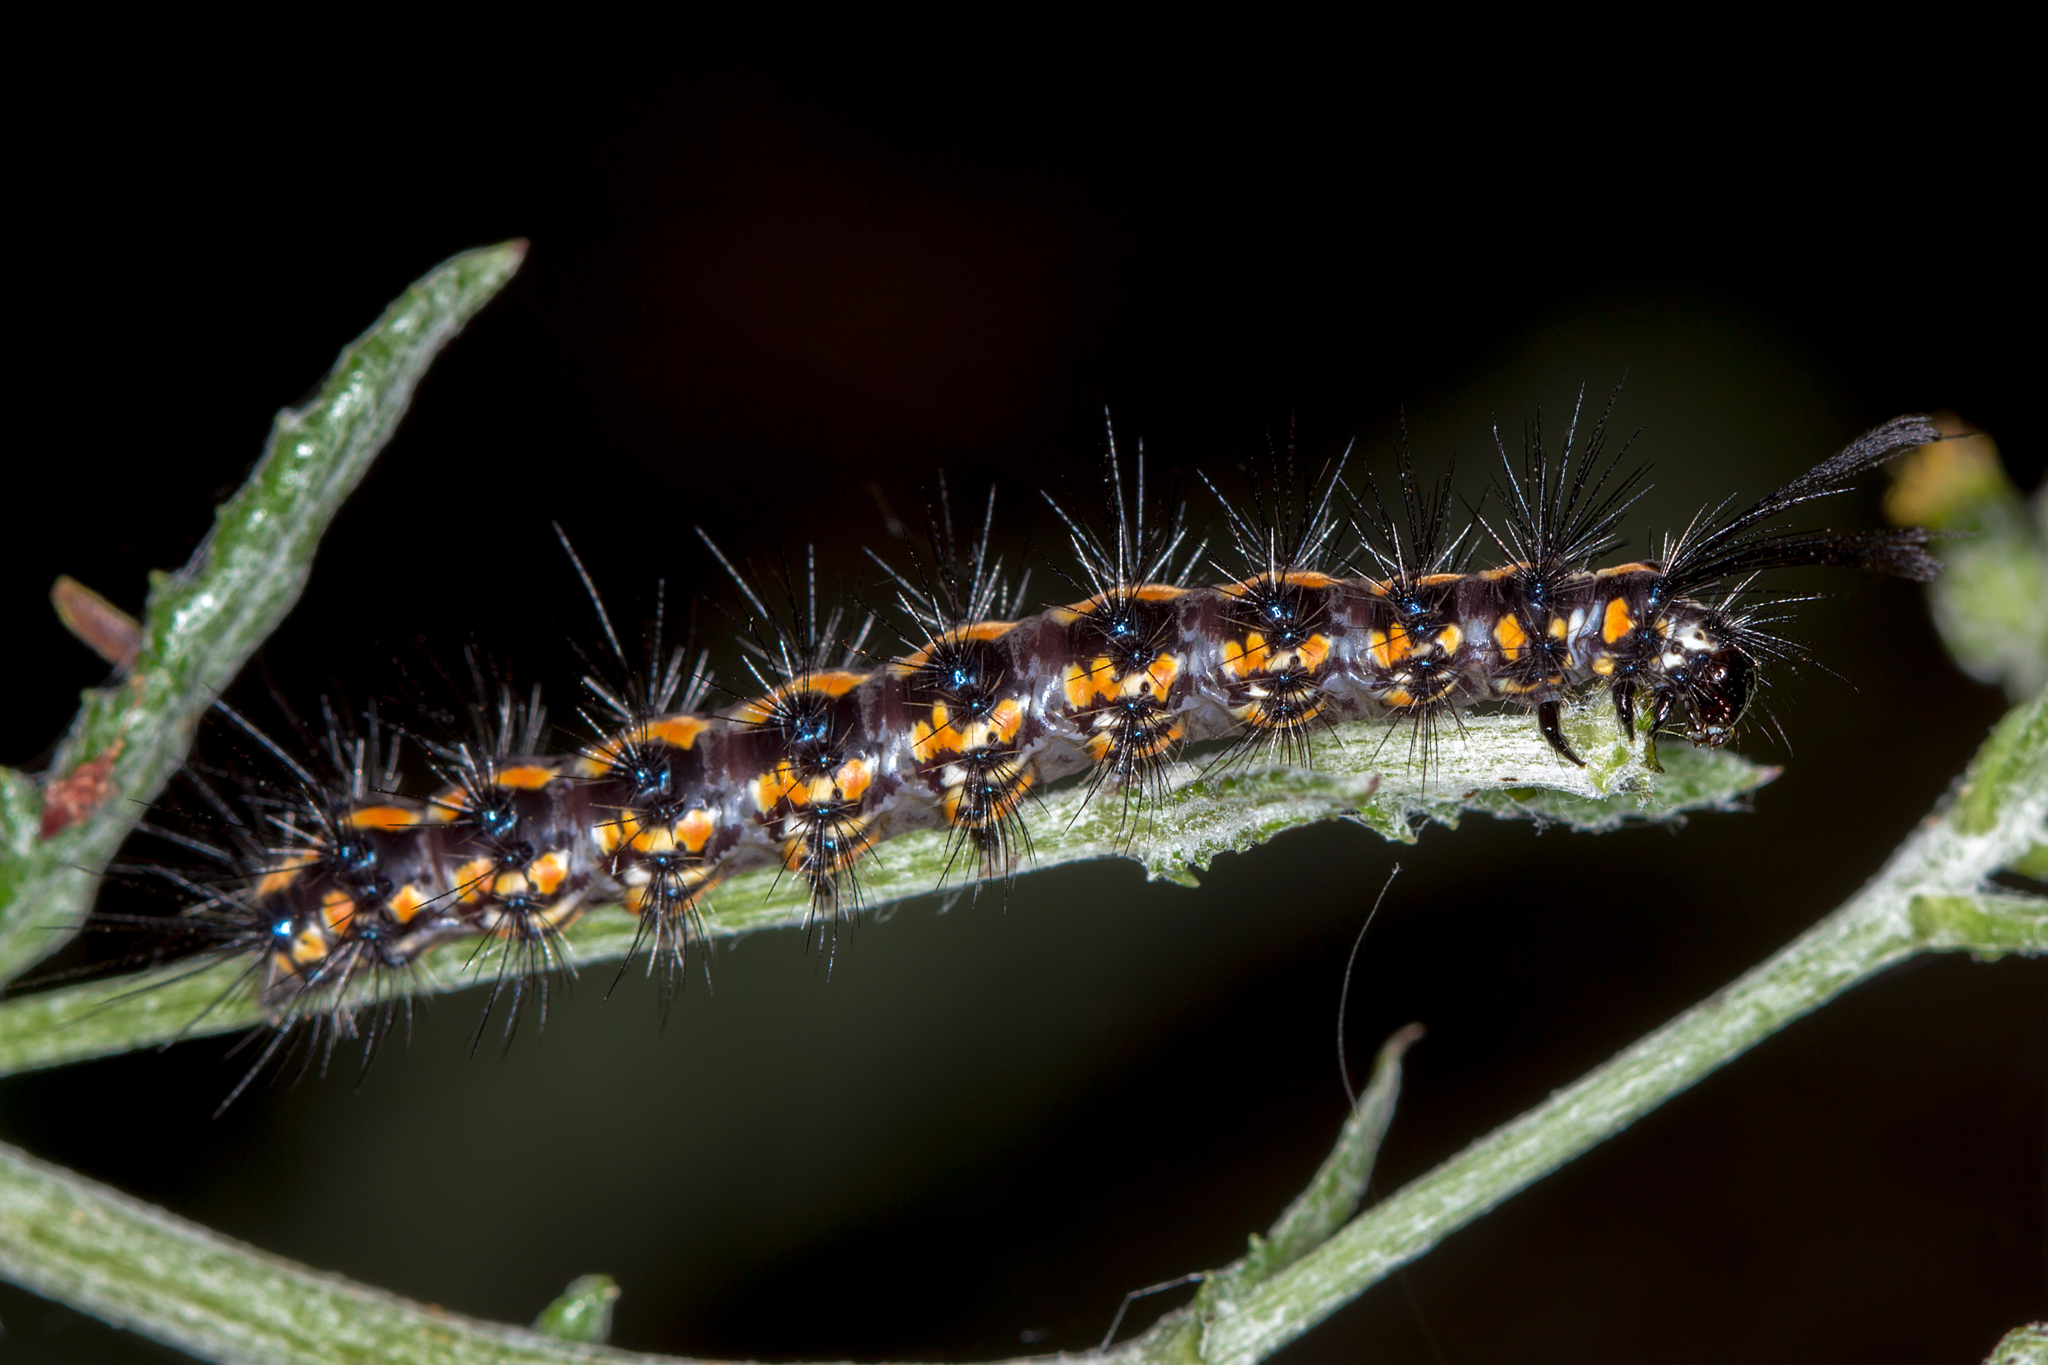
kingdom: Animalia
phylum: Arthropoda
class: Insecta
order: Lepidoptera
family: Erebidae
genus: Nyctemera
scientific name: Nyctemera amicus
